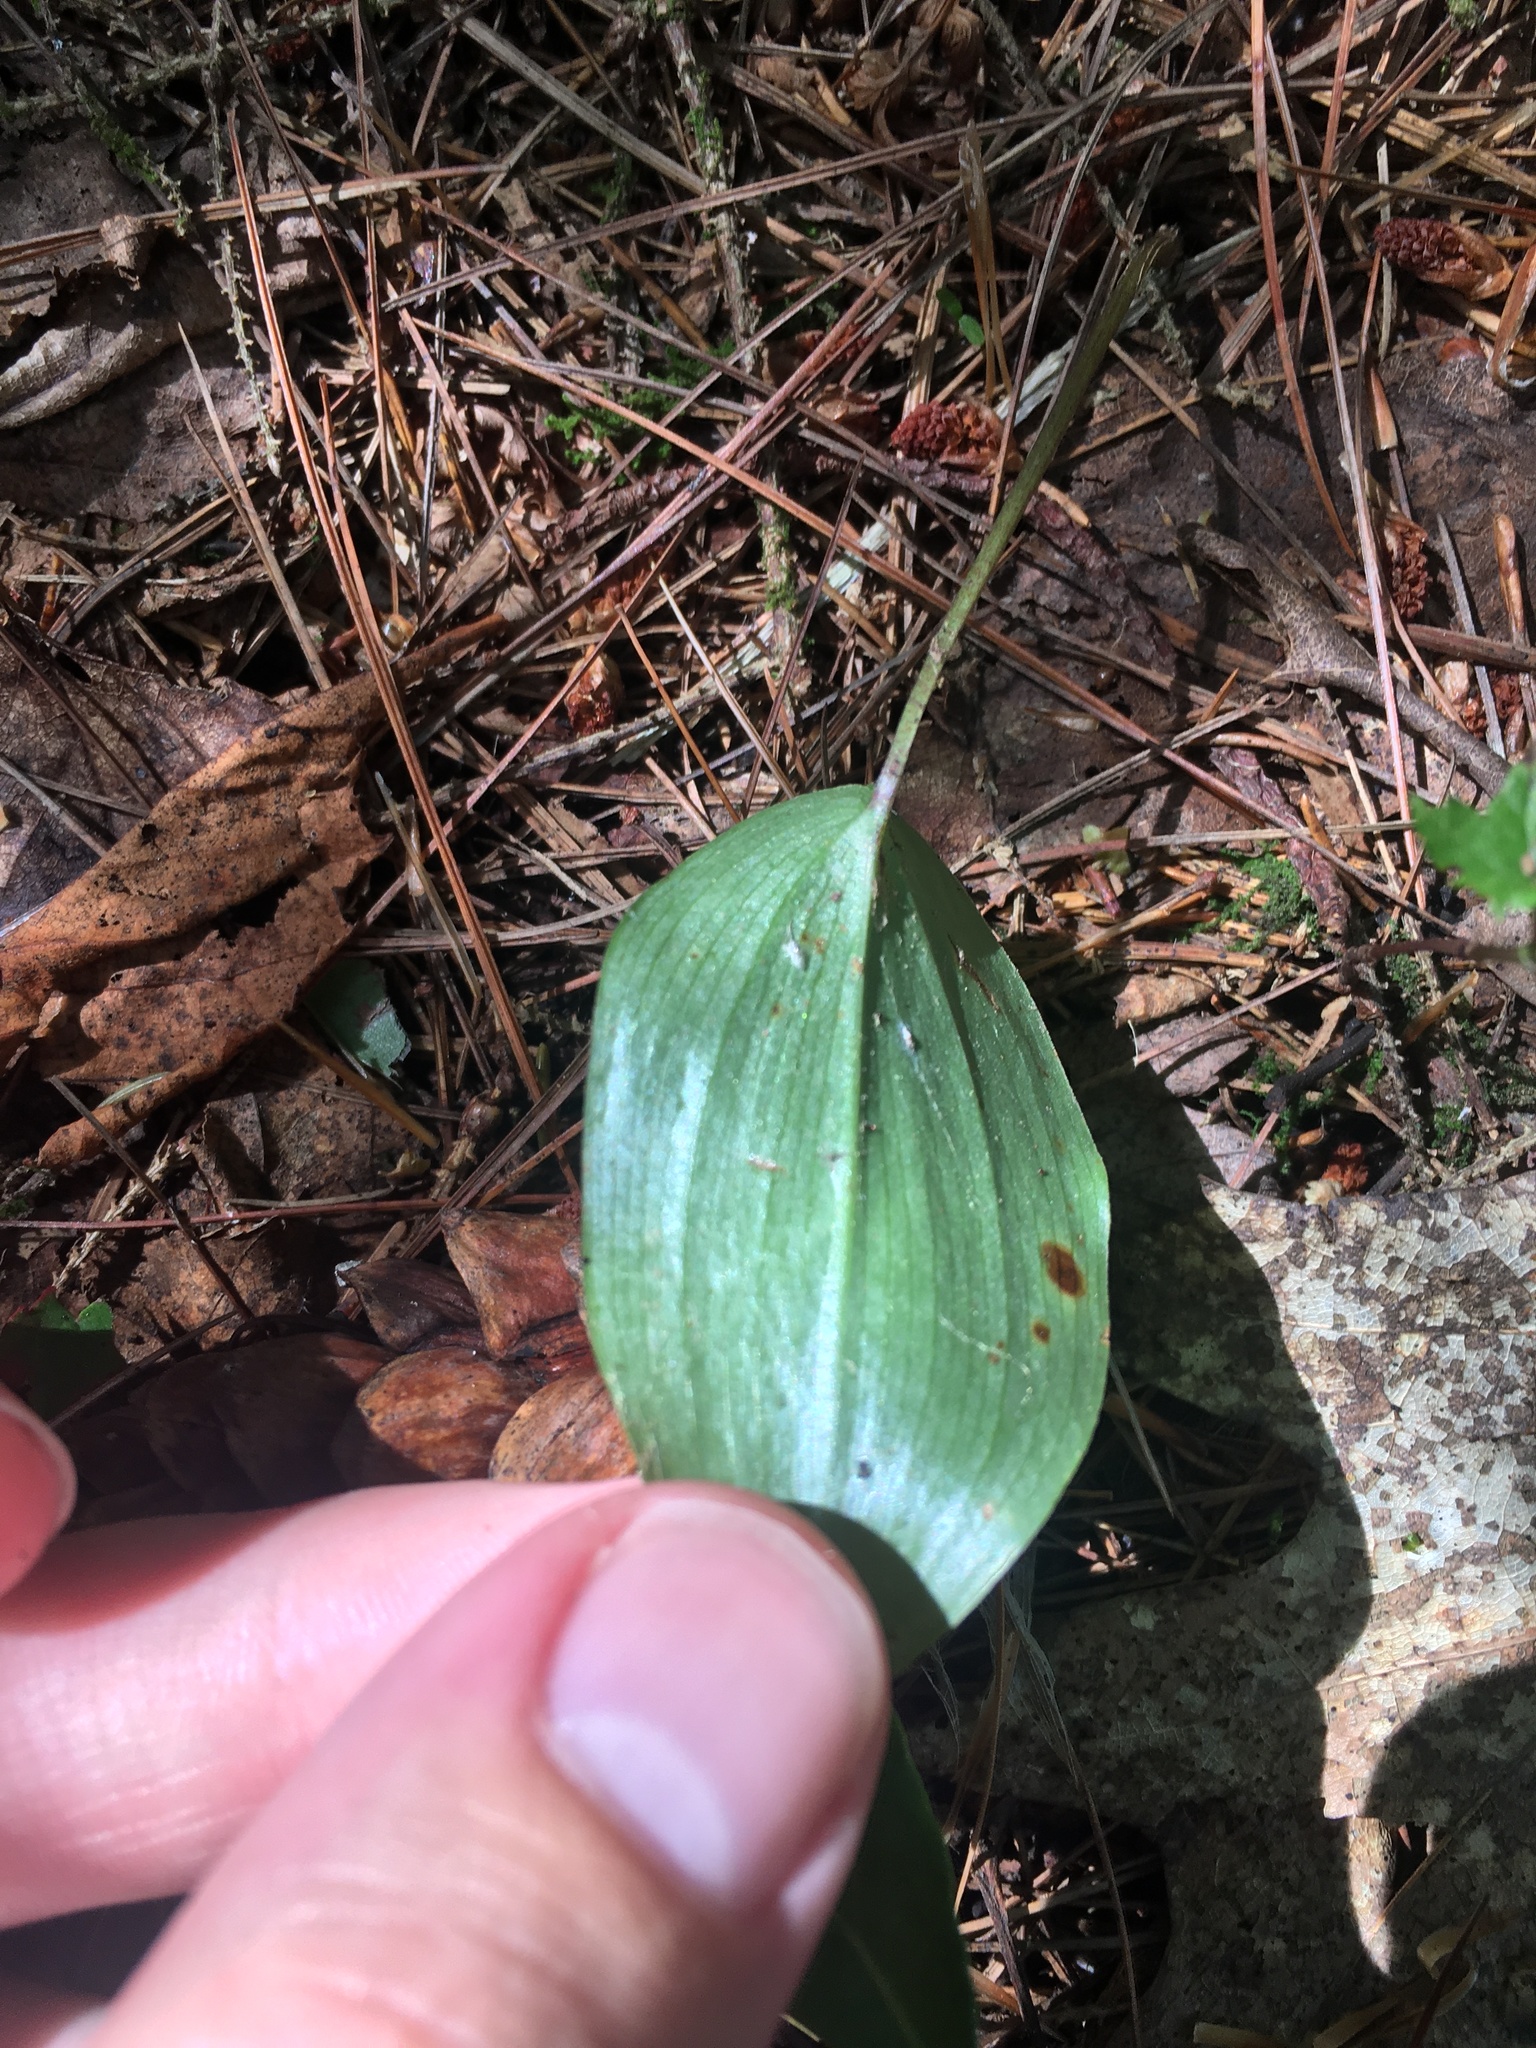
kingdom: Plantae
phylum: Tracheophyta
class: Liliopsida
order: Asparagales
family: Asparagaceae
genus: Maianthemum
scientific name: Maianthemum canadense
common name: False lily-of-the-valley
